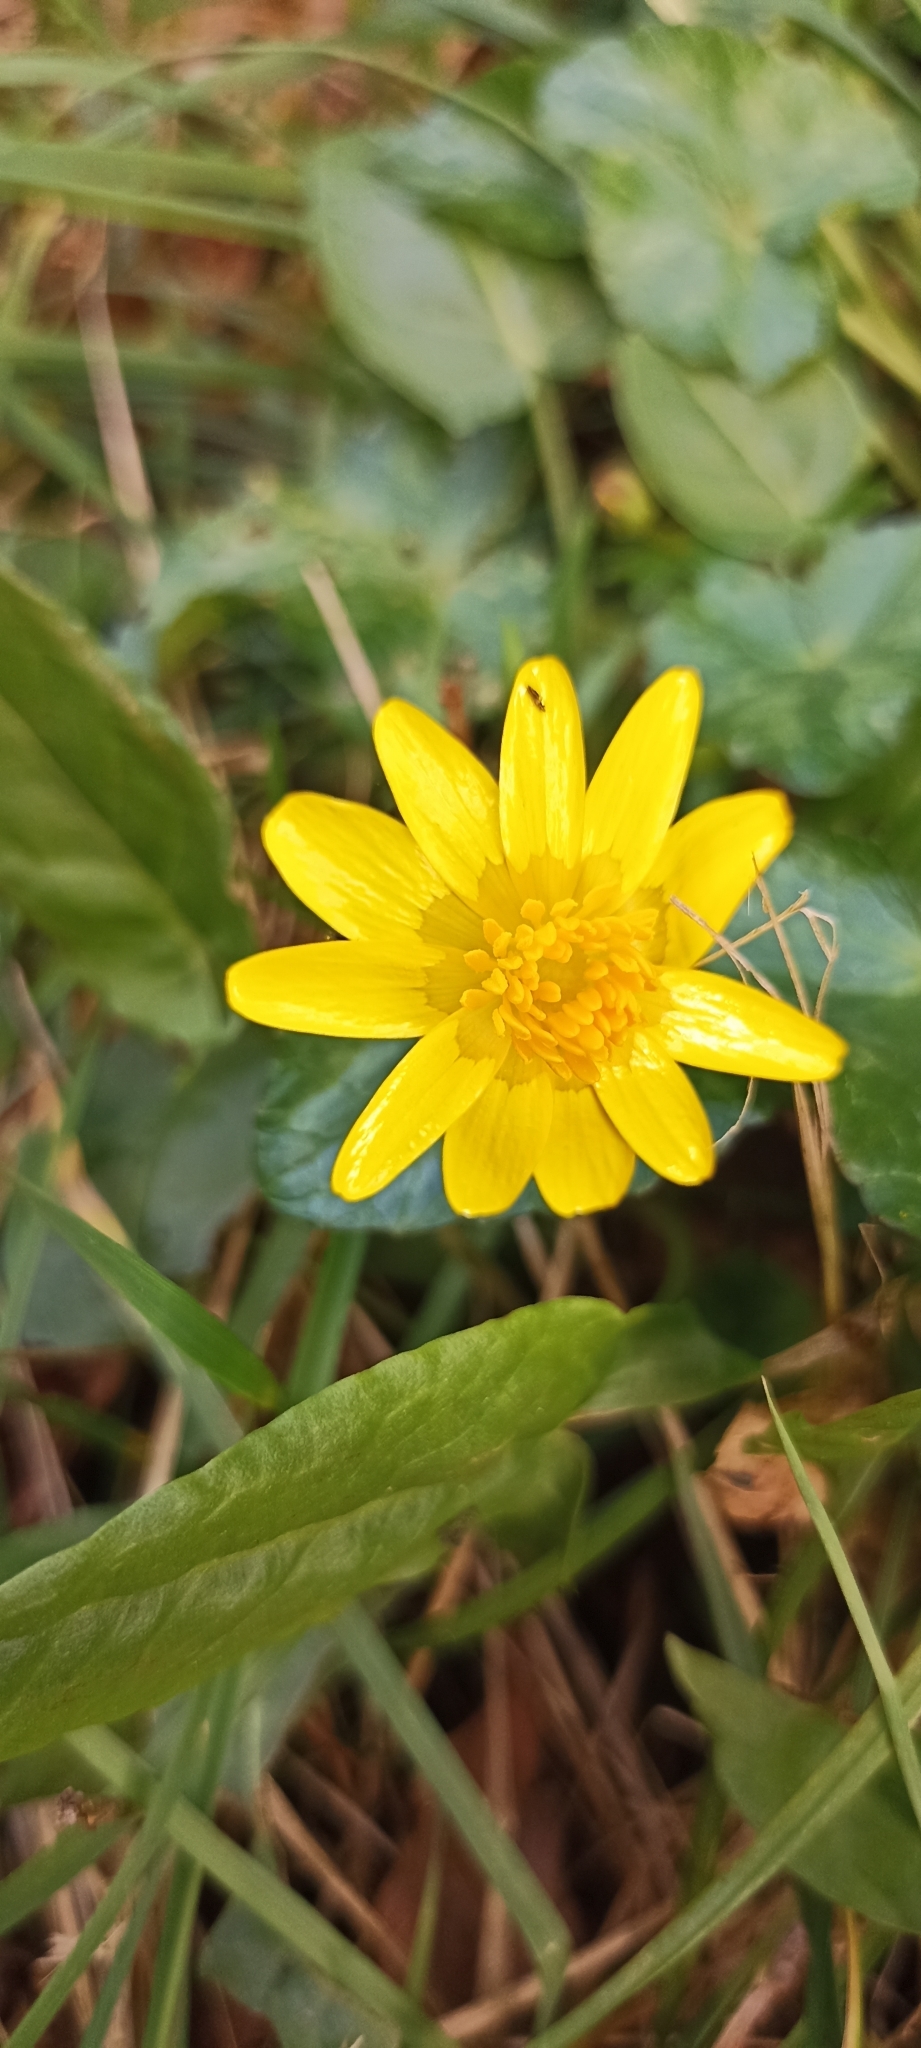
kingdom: Plantae
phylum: Tracheophyta
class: Magnoliopsida
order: Ranunculales
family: Ranunculaceae
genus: Ficaria
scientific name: Ficaria verna
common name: Lesser celandine
